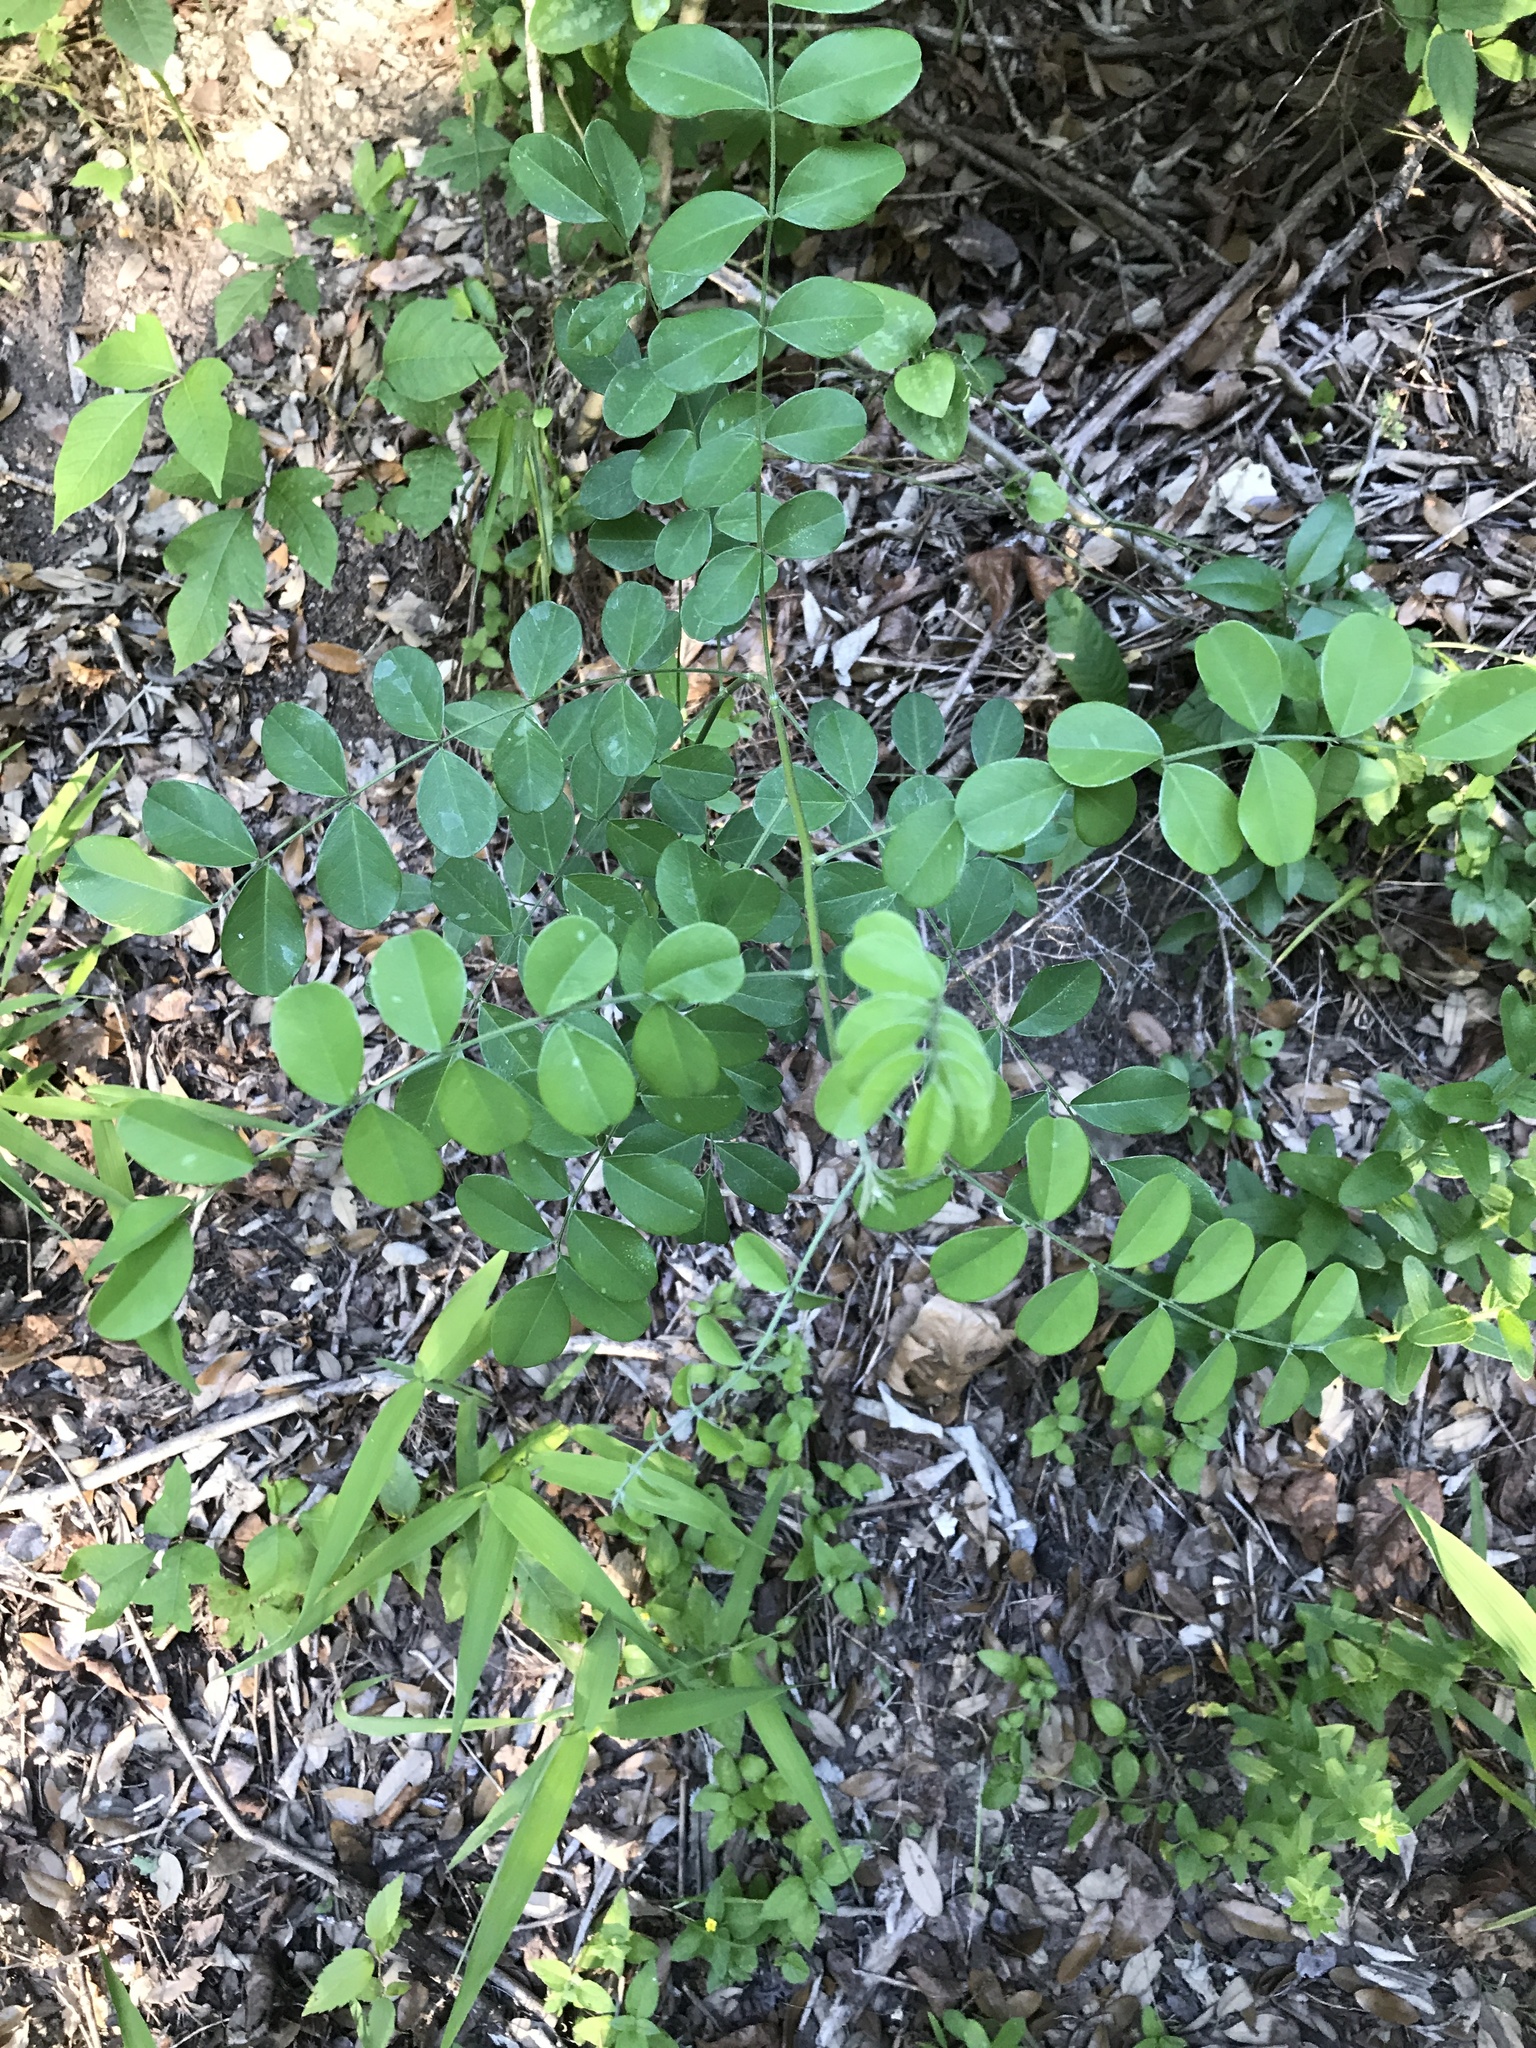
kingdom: Plantae
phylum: Tracheophyta
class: Magnoliopsida
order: Fabales
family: Fabaceae
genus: Styphnolobium
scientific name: Styphnolobium affine
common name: Texas sophora
